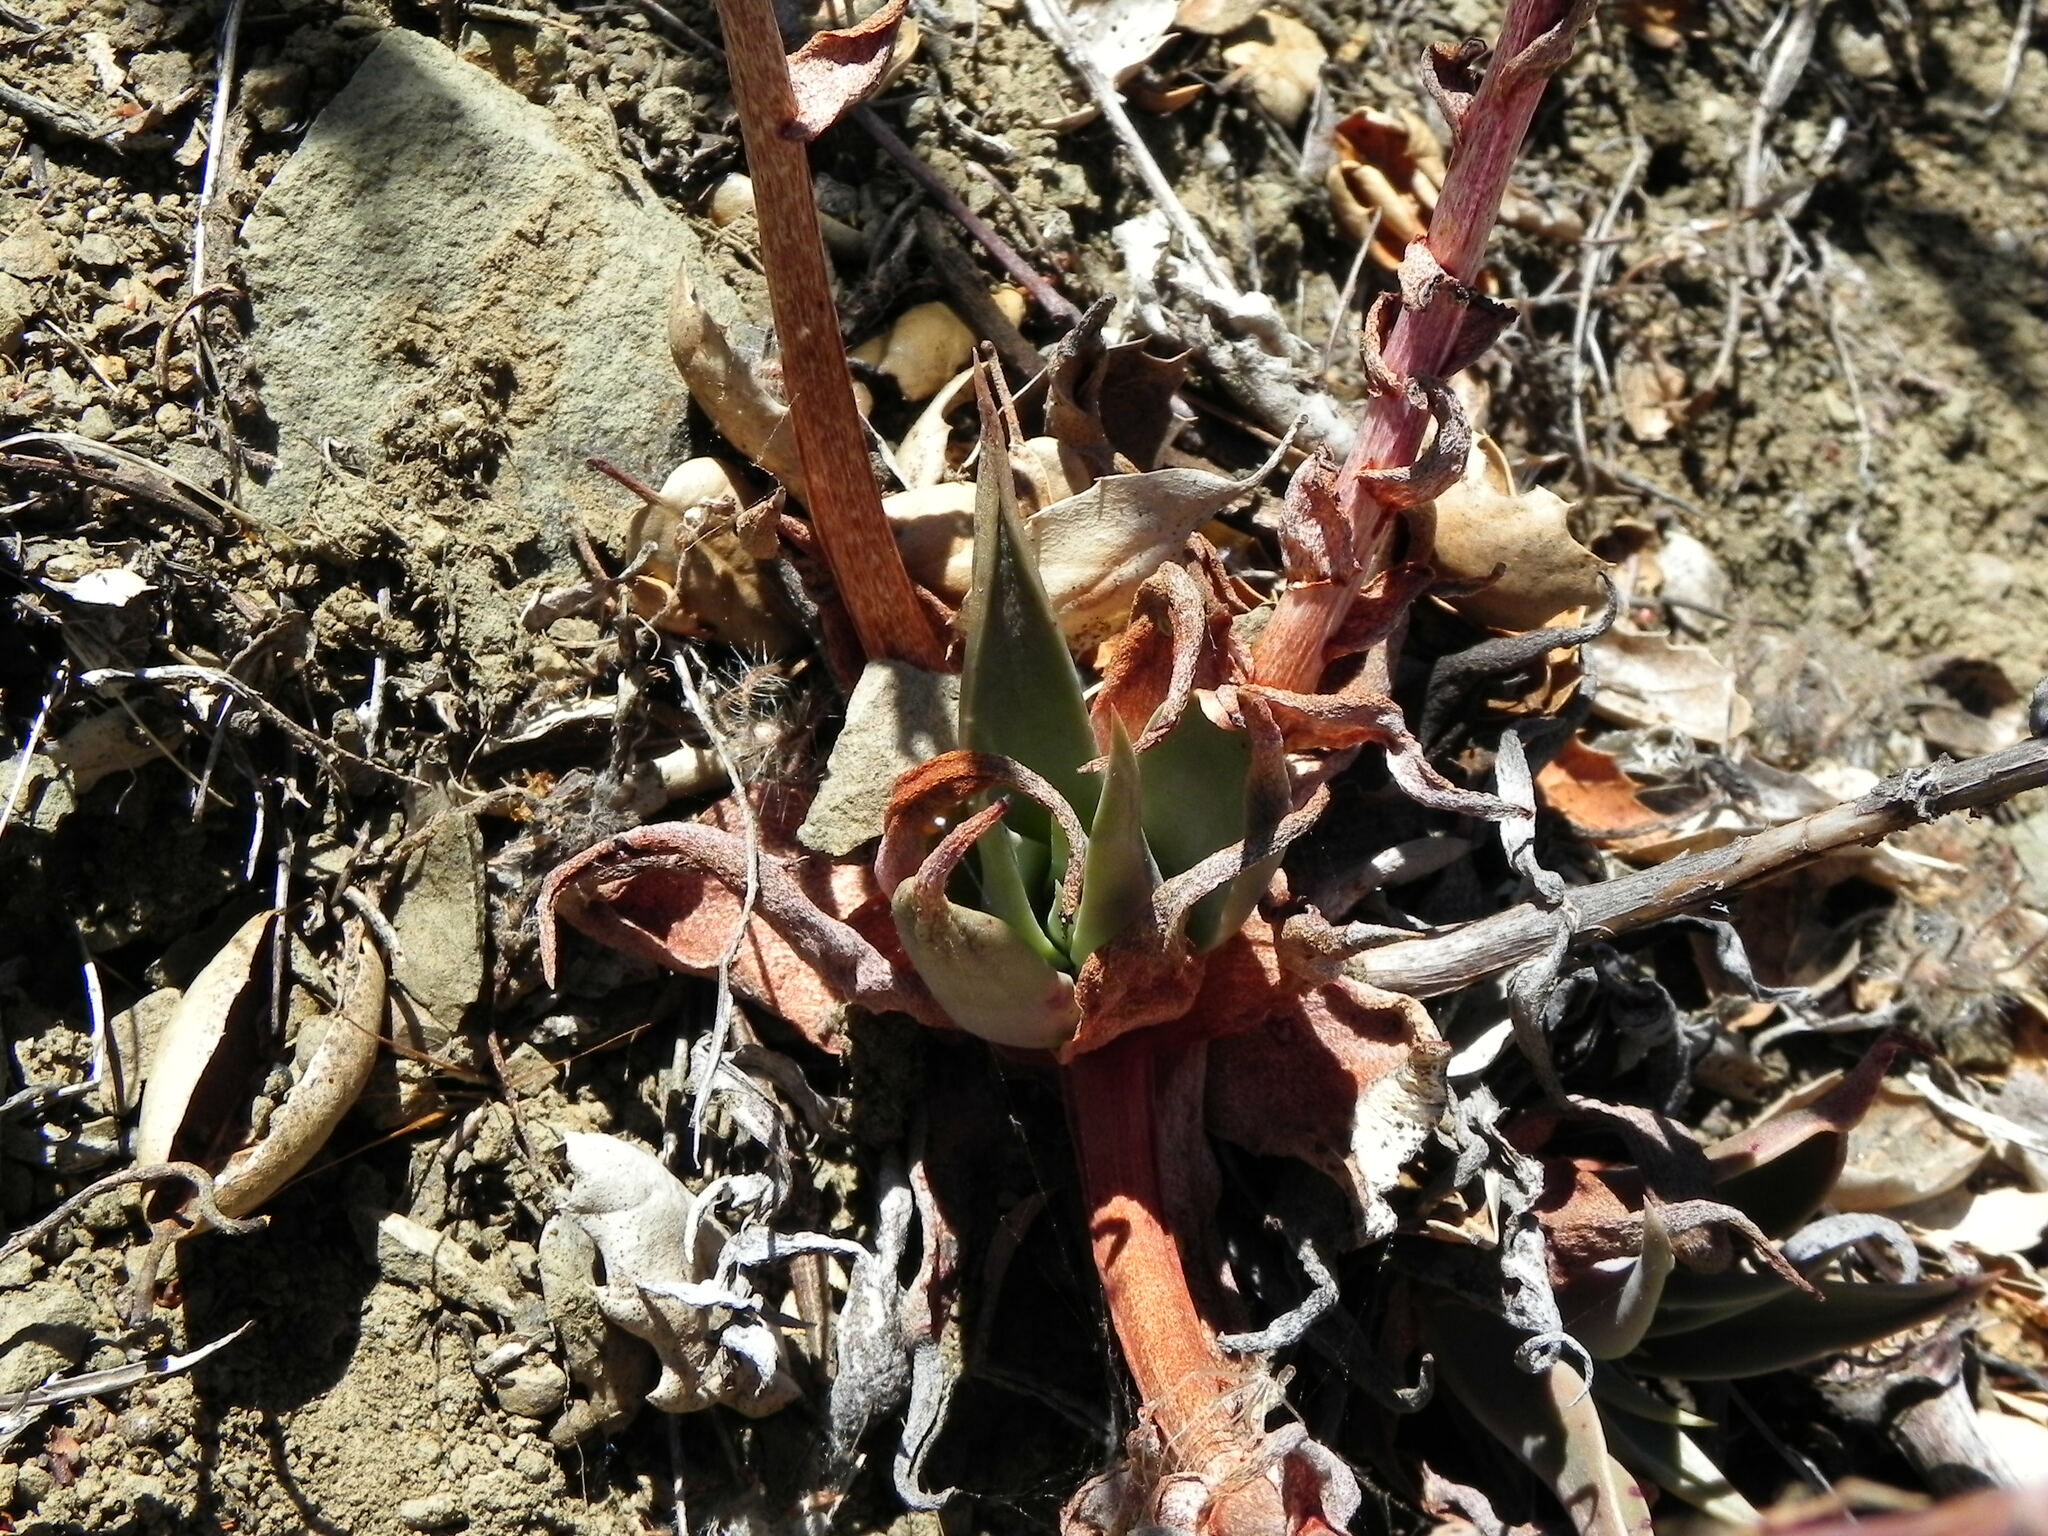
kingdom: Plantae
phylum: Tracheophyta
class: Magnoliopsida
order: Saxifragales
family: Crassulaceae
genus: Dudleya
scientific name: Dudleya lanceolata
